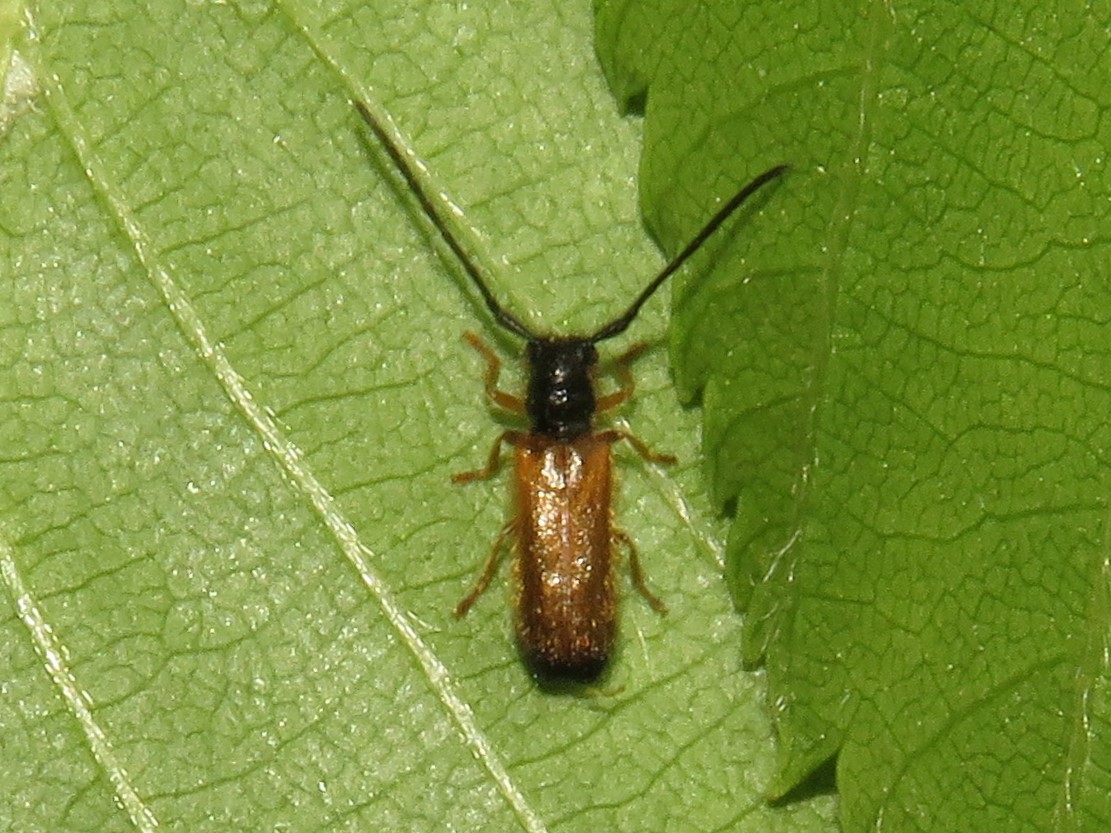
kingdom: Animalia
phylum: Arthropoda
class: Insecta
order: Coleoptera
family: Cerambycidae
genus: Tetrops
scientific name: Tetrops praeustus
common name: Plum beetle
